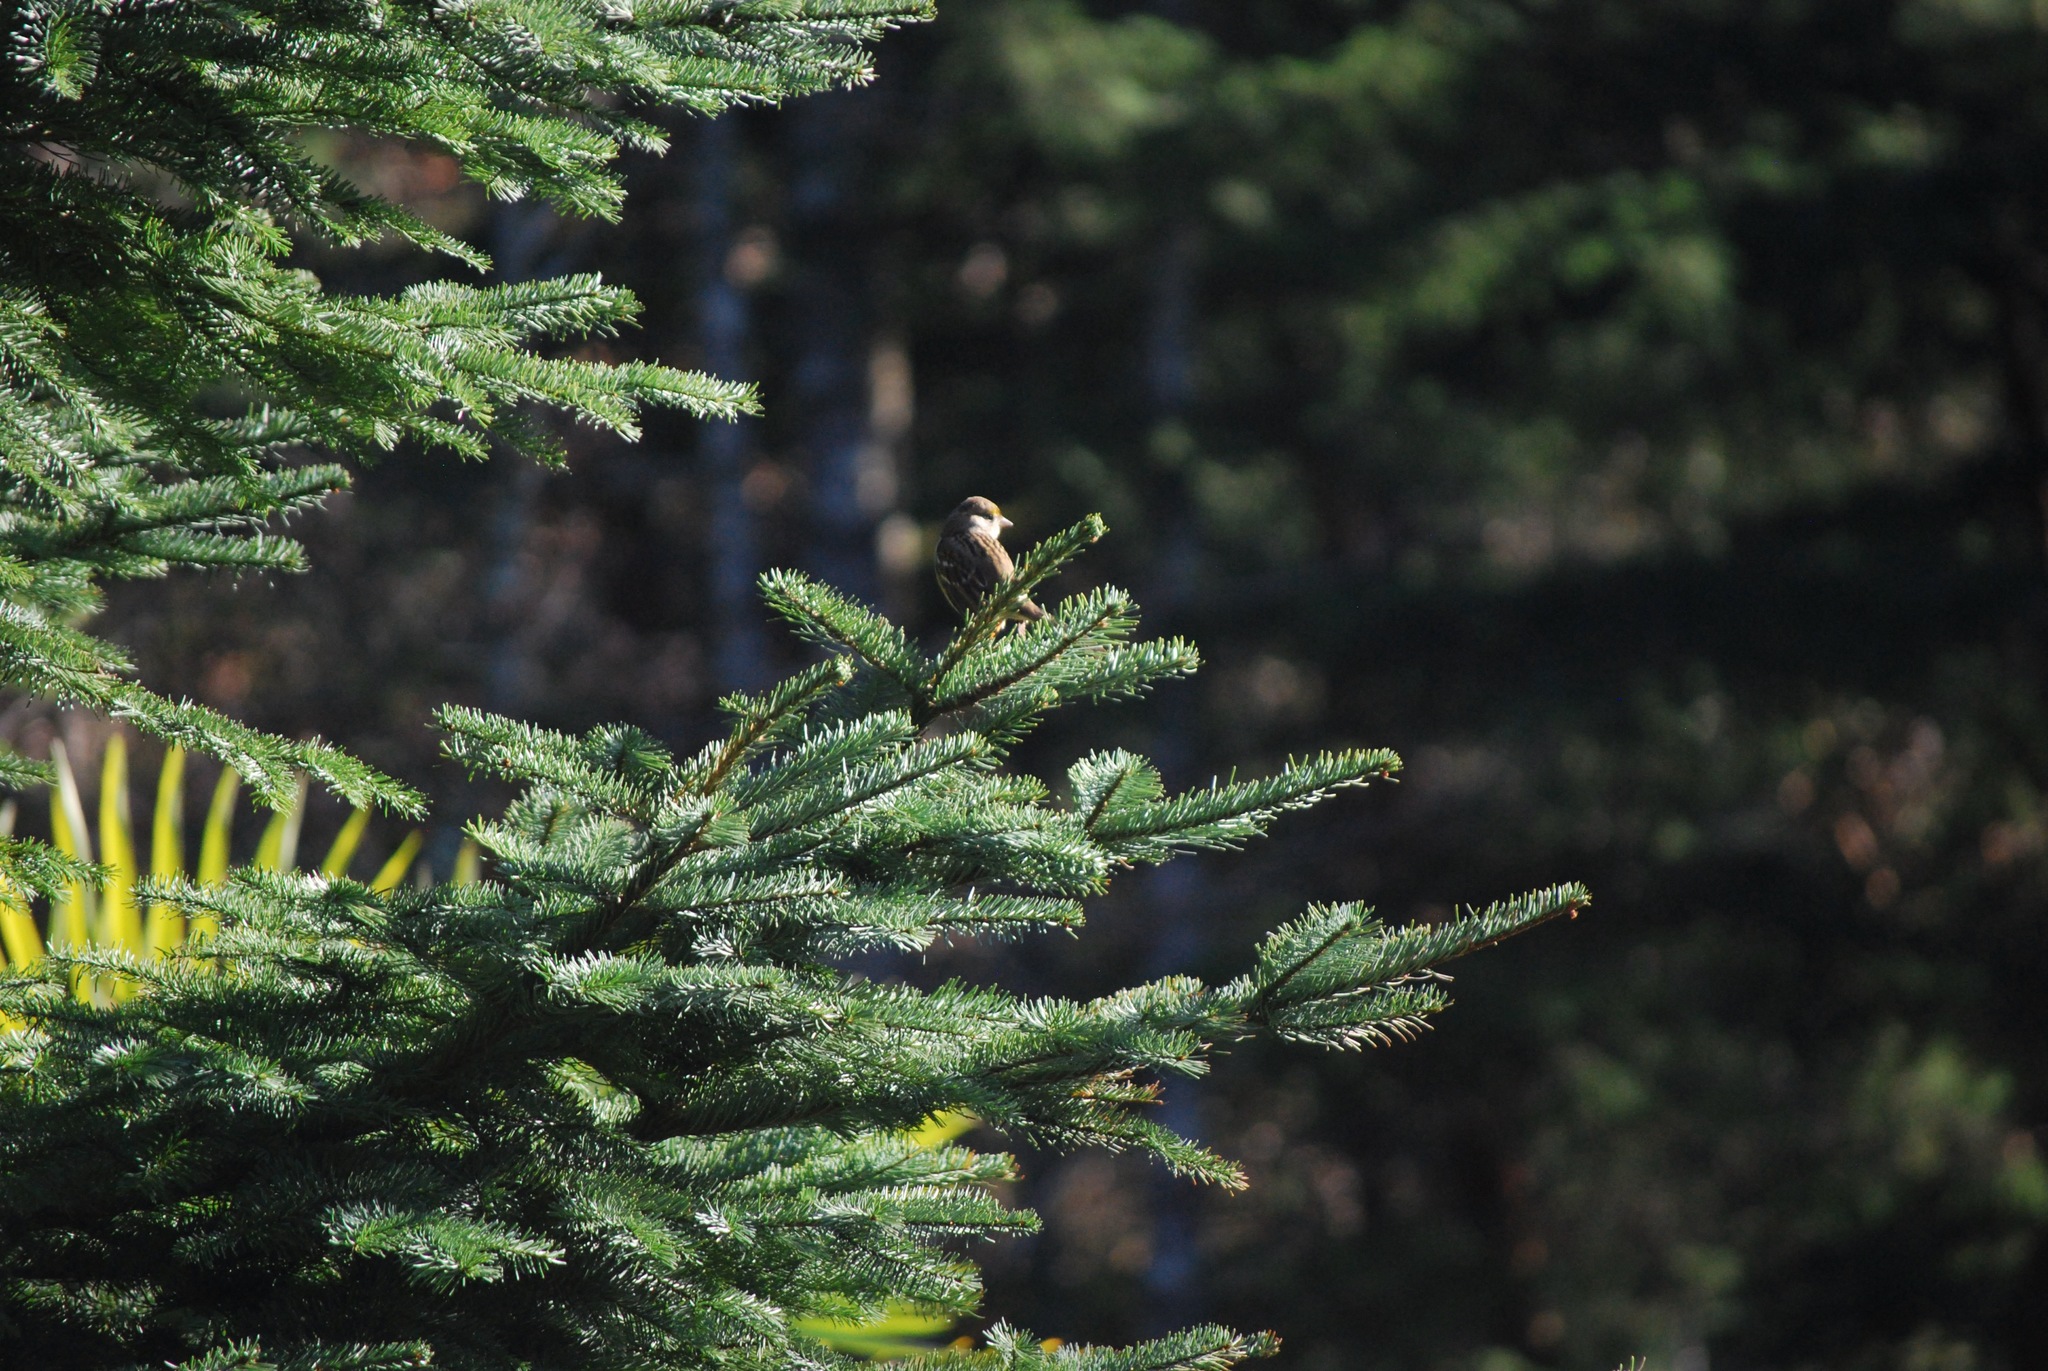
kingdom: Animalia
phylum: Chordata
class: Aves
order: Passeriformes
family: Passerellidae
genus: Zonotrichia
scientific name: Zonotrichia atricapilla
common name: Golden-crowned sparrow
